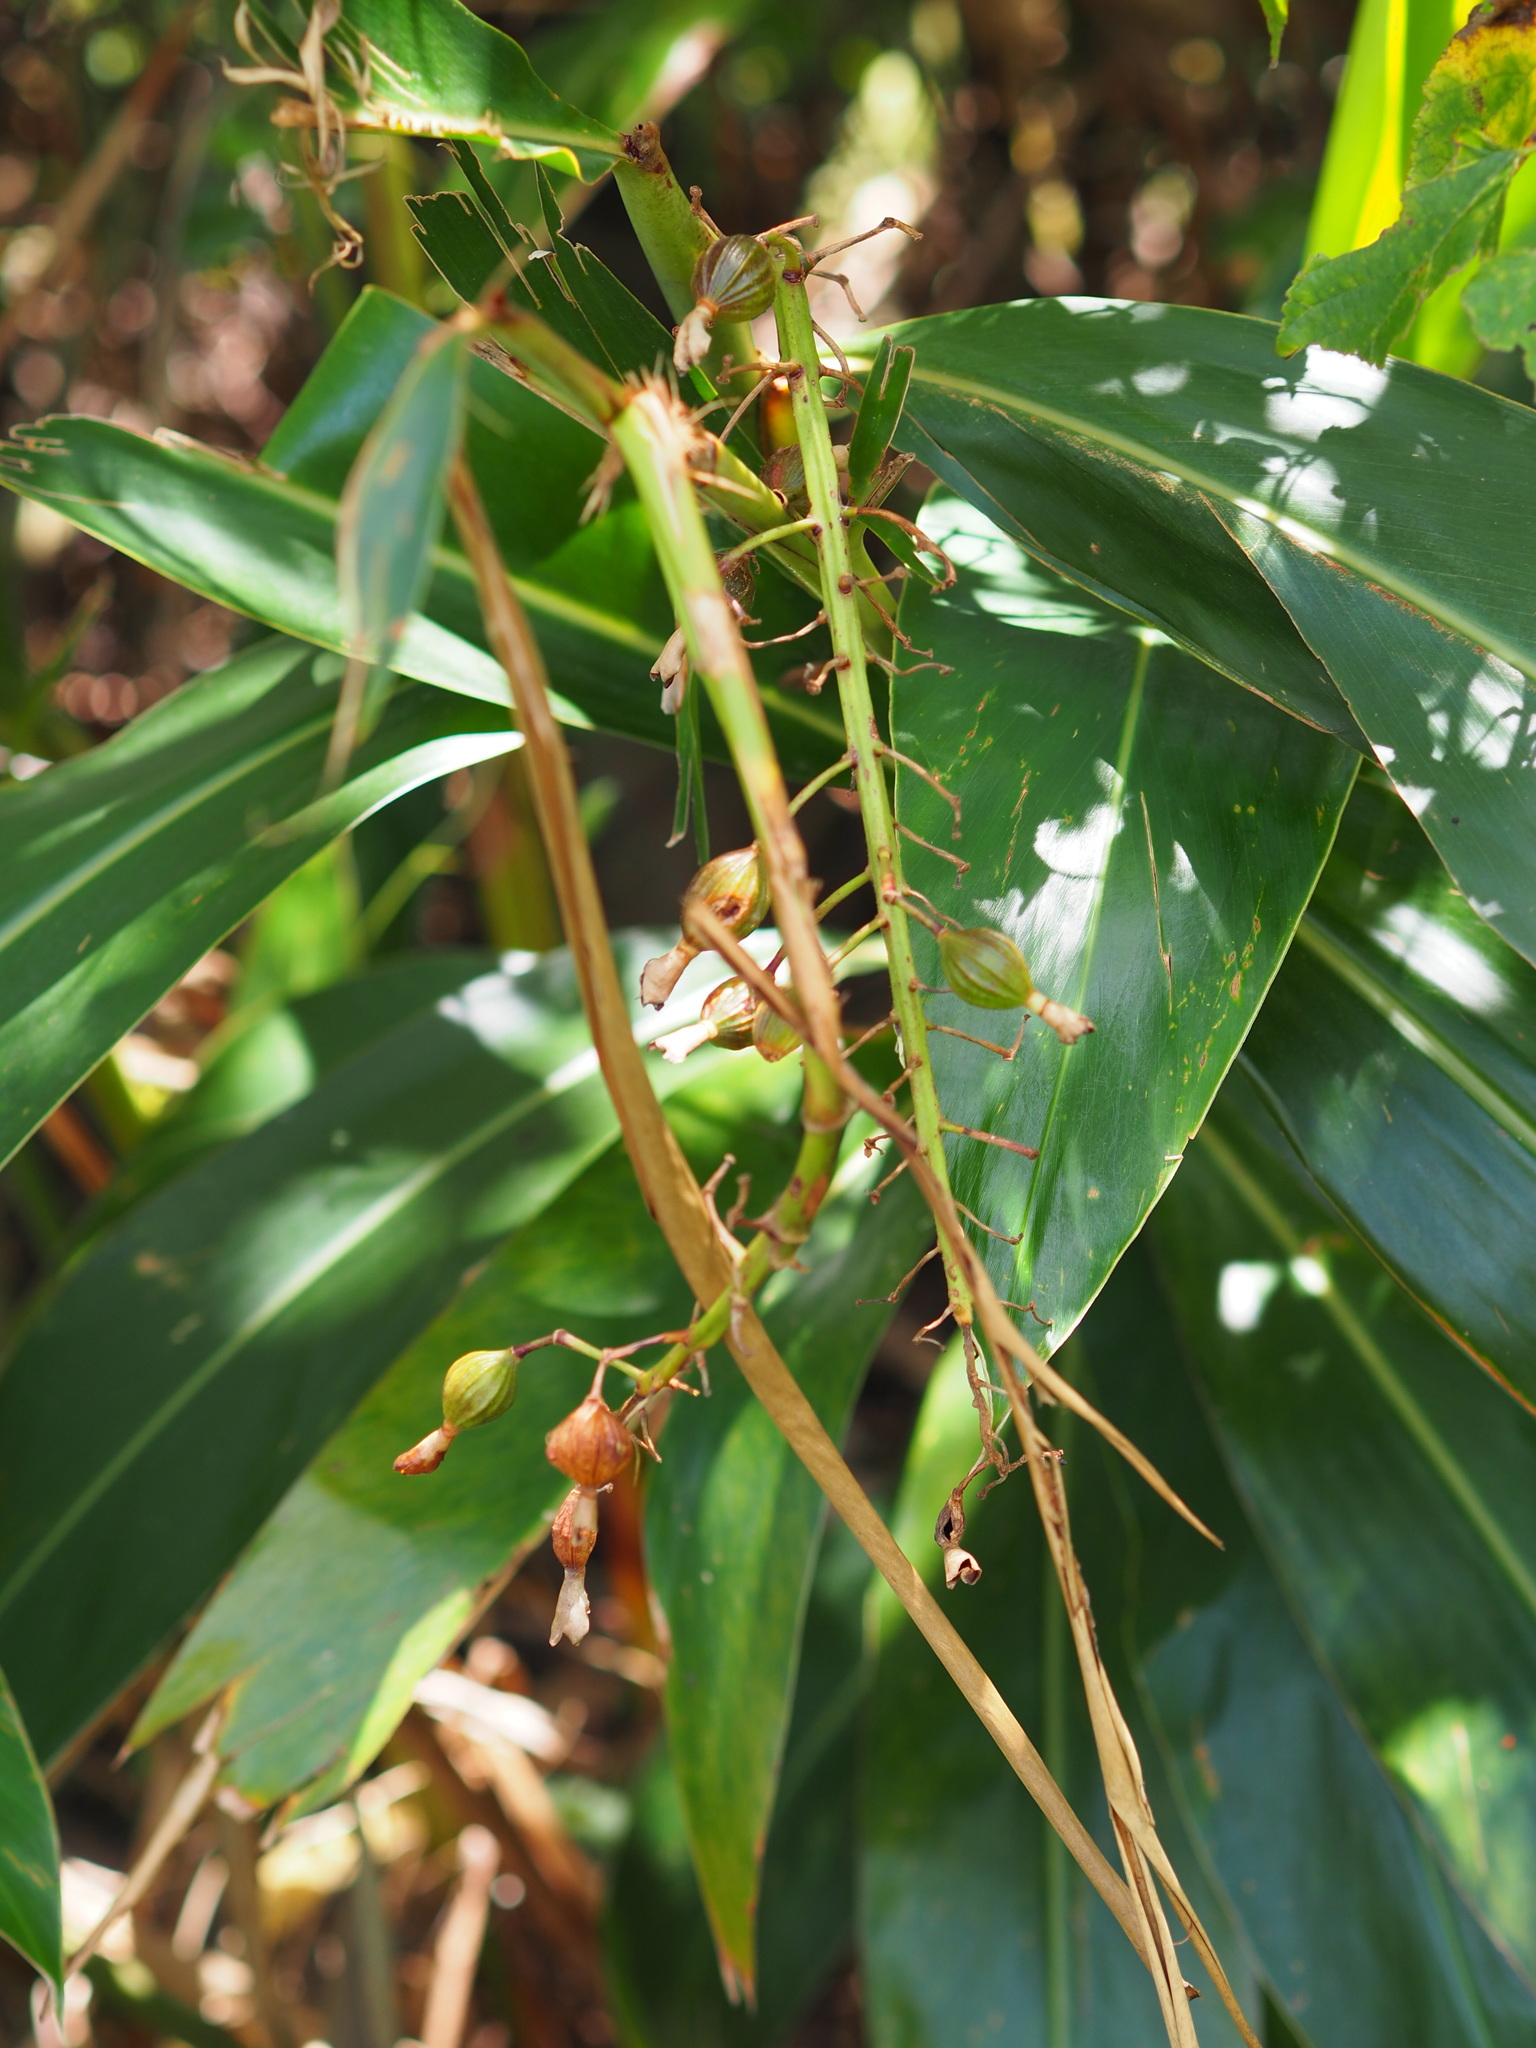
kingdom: Plantae
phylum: Tracheophyta
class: Liliopsida
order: Zingiberales
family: Zingiberaceae
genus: Alpinia
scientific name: Alpinia zerumbet
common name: Shellplant
